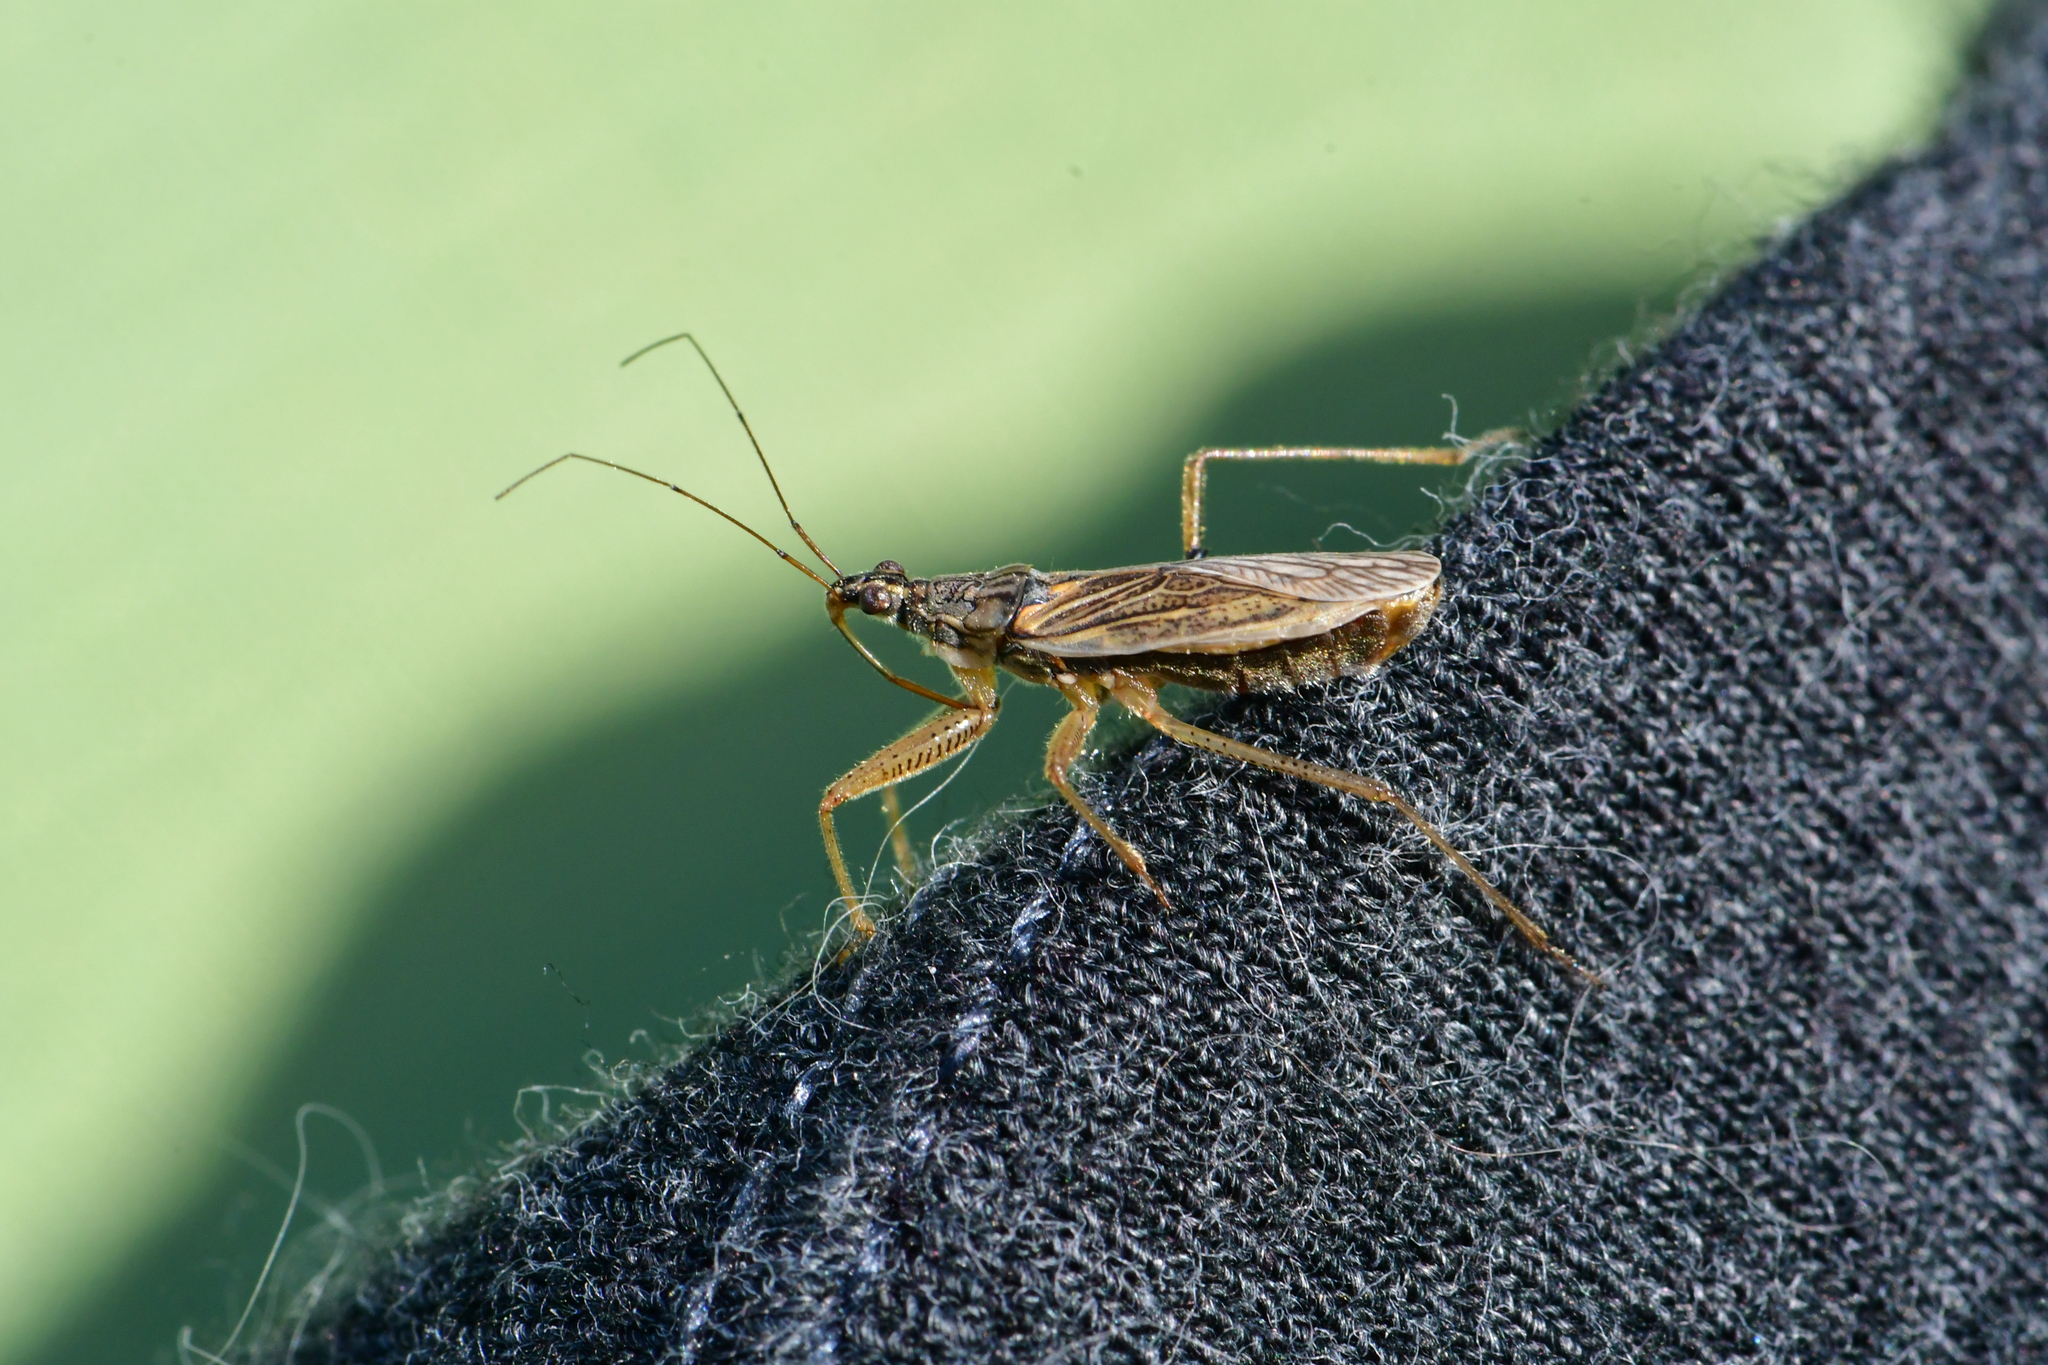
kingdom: Animalia
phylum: Arthropoda
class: Insecta
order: Hemiptera
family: Nabidae
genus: Nabis
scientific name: Nabis flavomarginatus
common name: Broad damselbug
